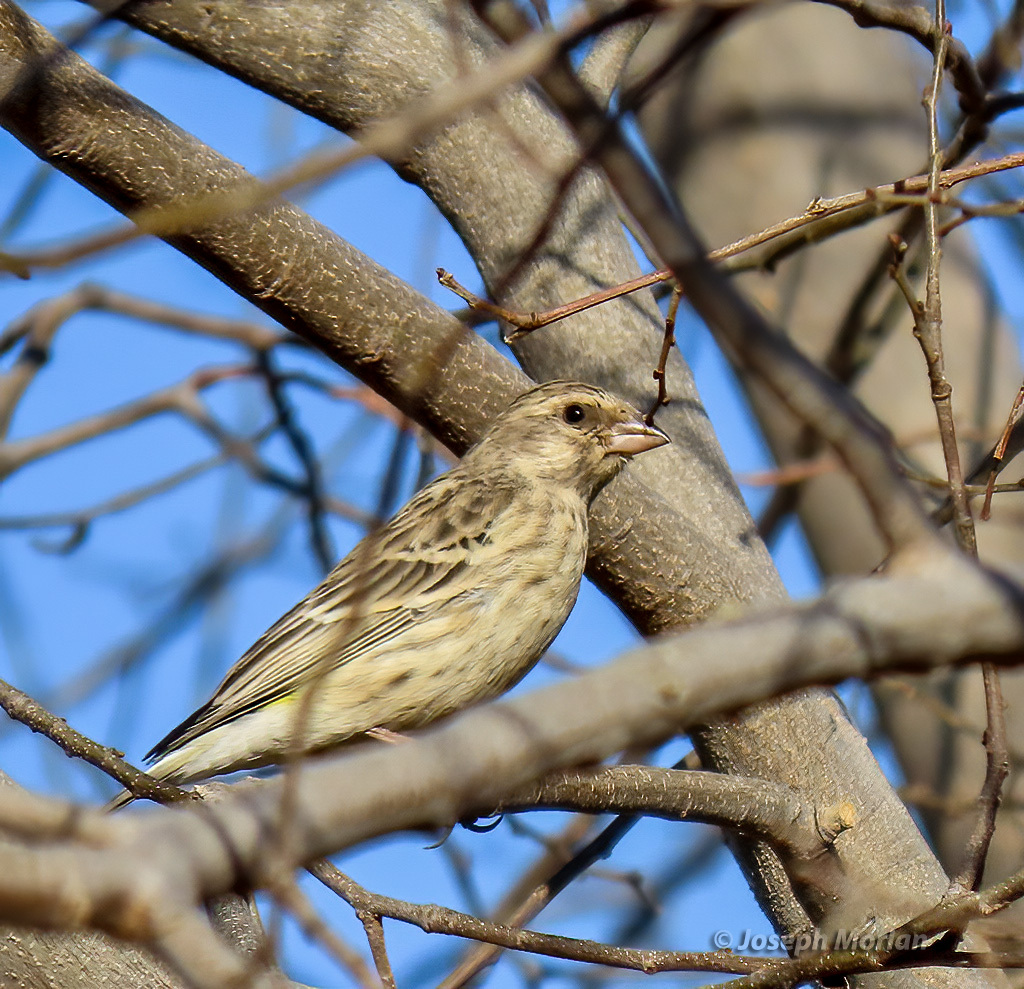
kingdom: Animalia
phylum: Chordata
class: Aves
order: Passeriformes
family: Fringillidae
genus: Crithagra
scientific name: Crithagra atrogularis
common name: Black-throated canary
